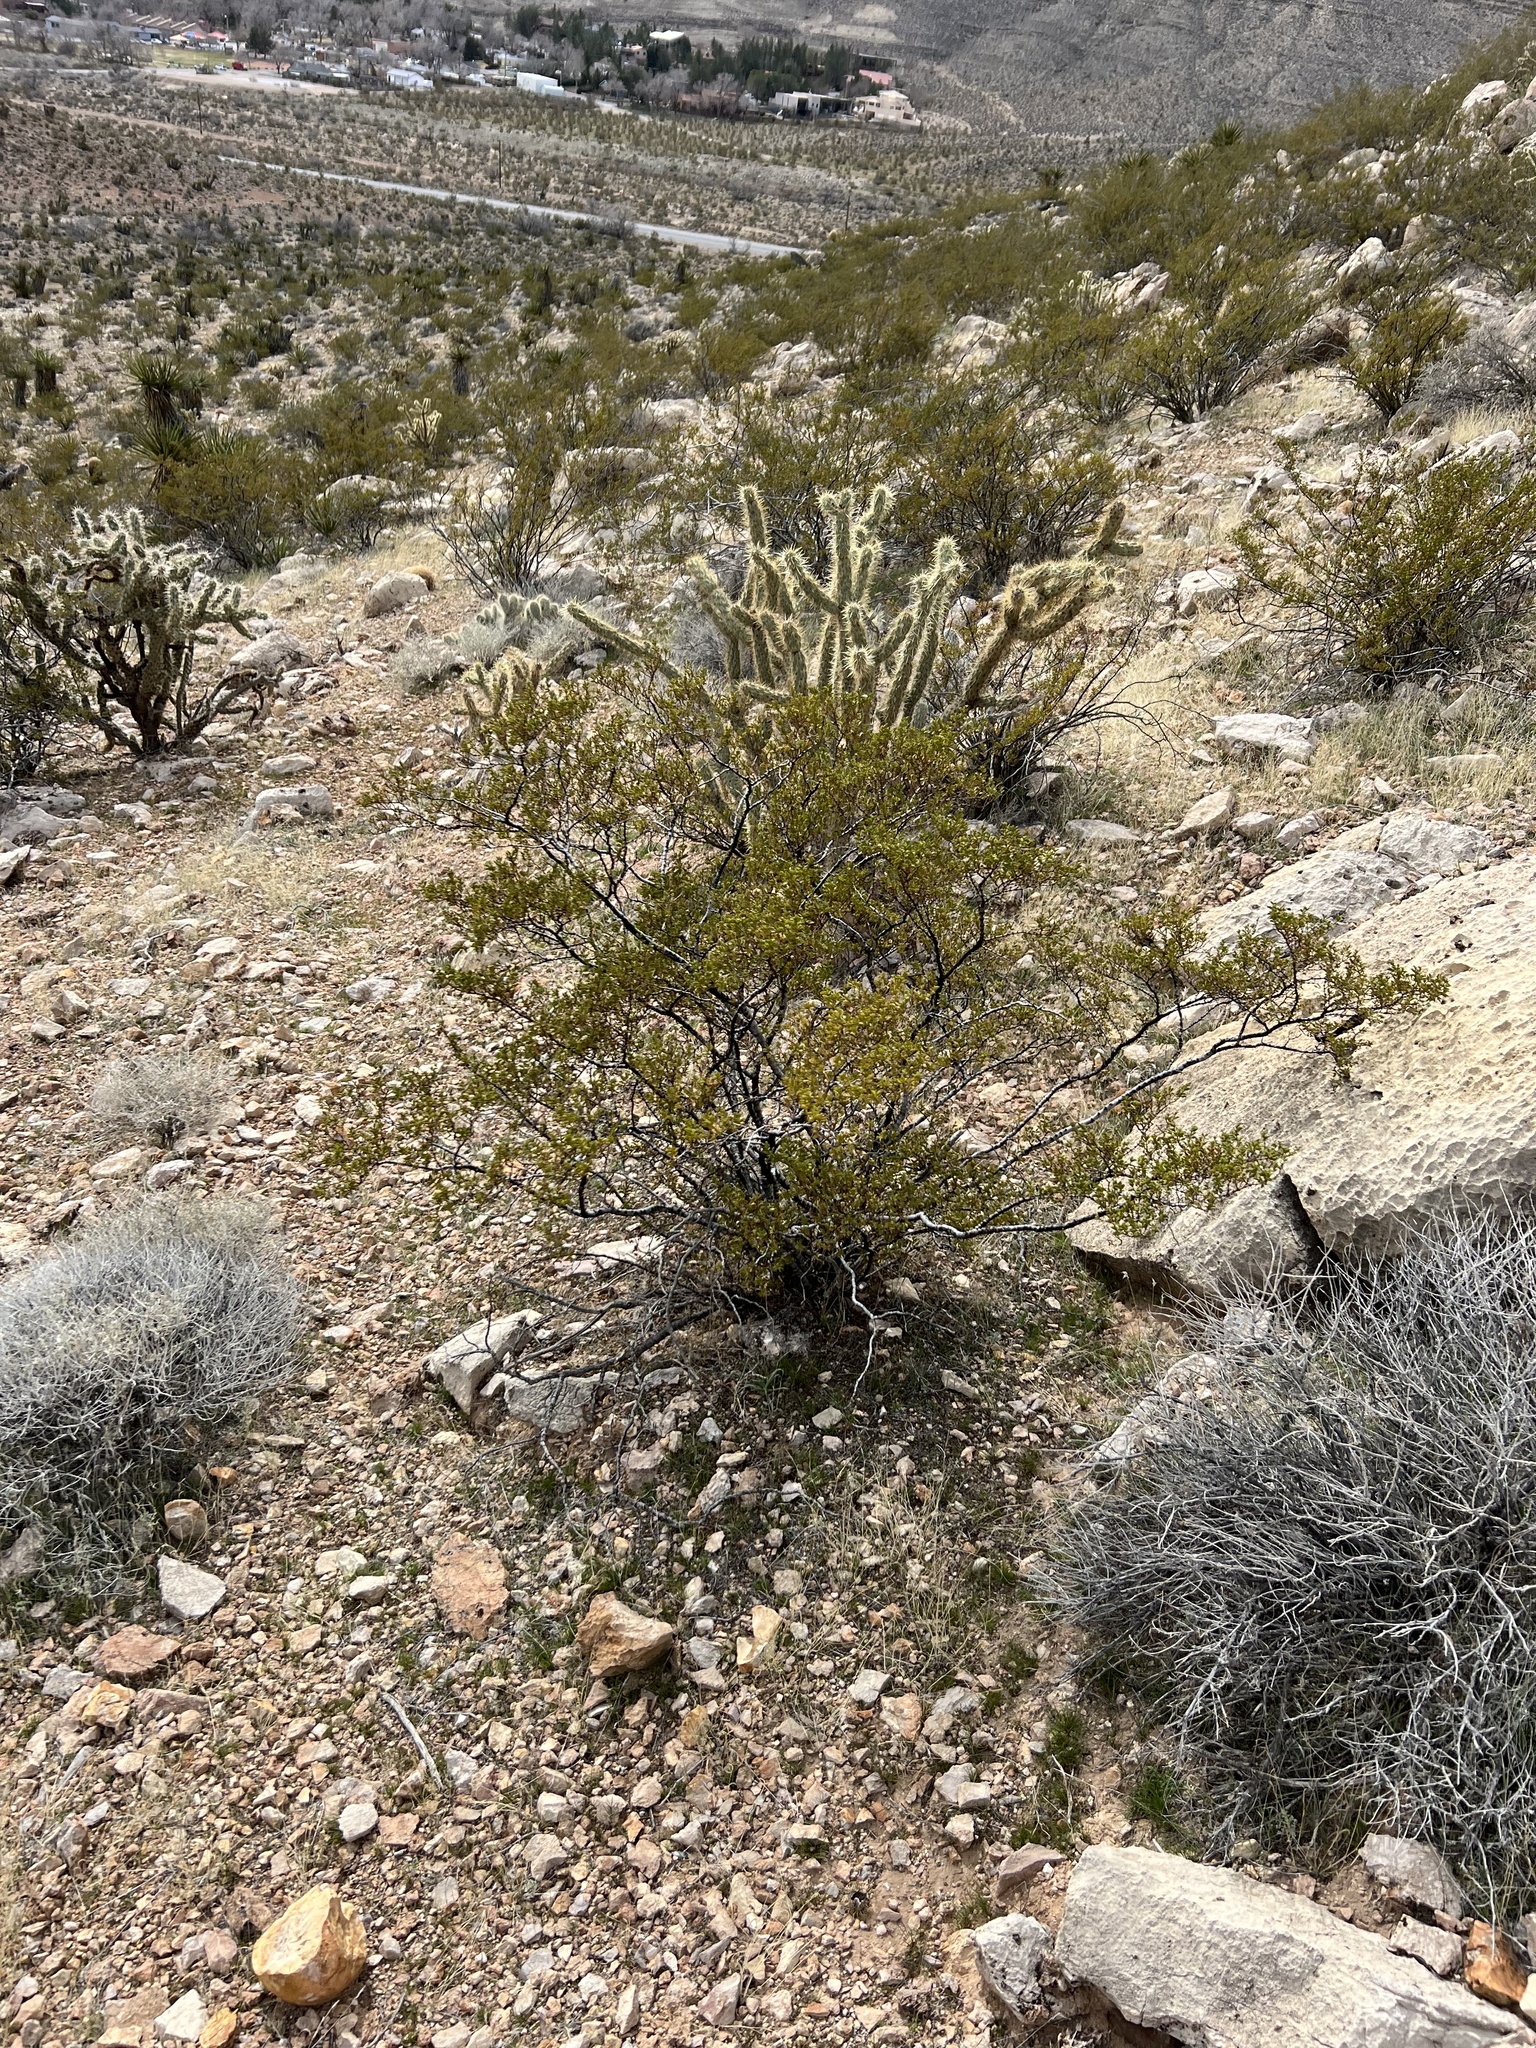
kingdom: Plantae
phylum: Tracheophyta
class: Magnoliopsida
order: Zygophyllales
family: Zygophyllaceae
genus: Larrea
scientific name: Larrea tridentata
